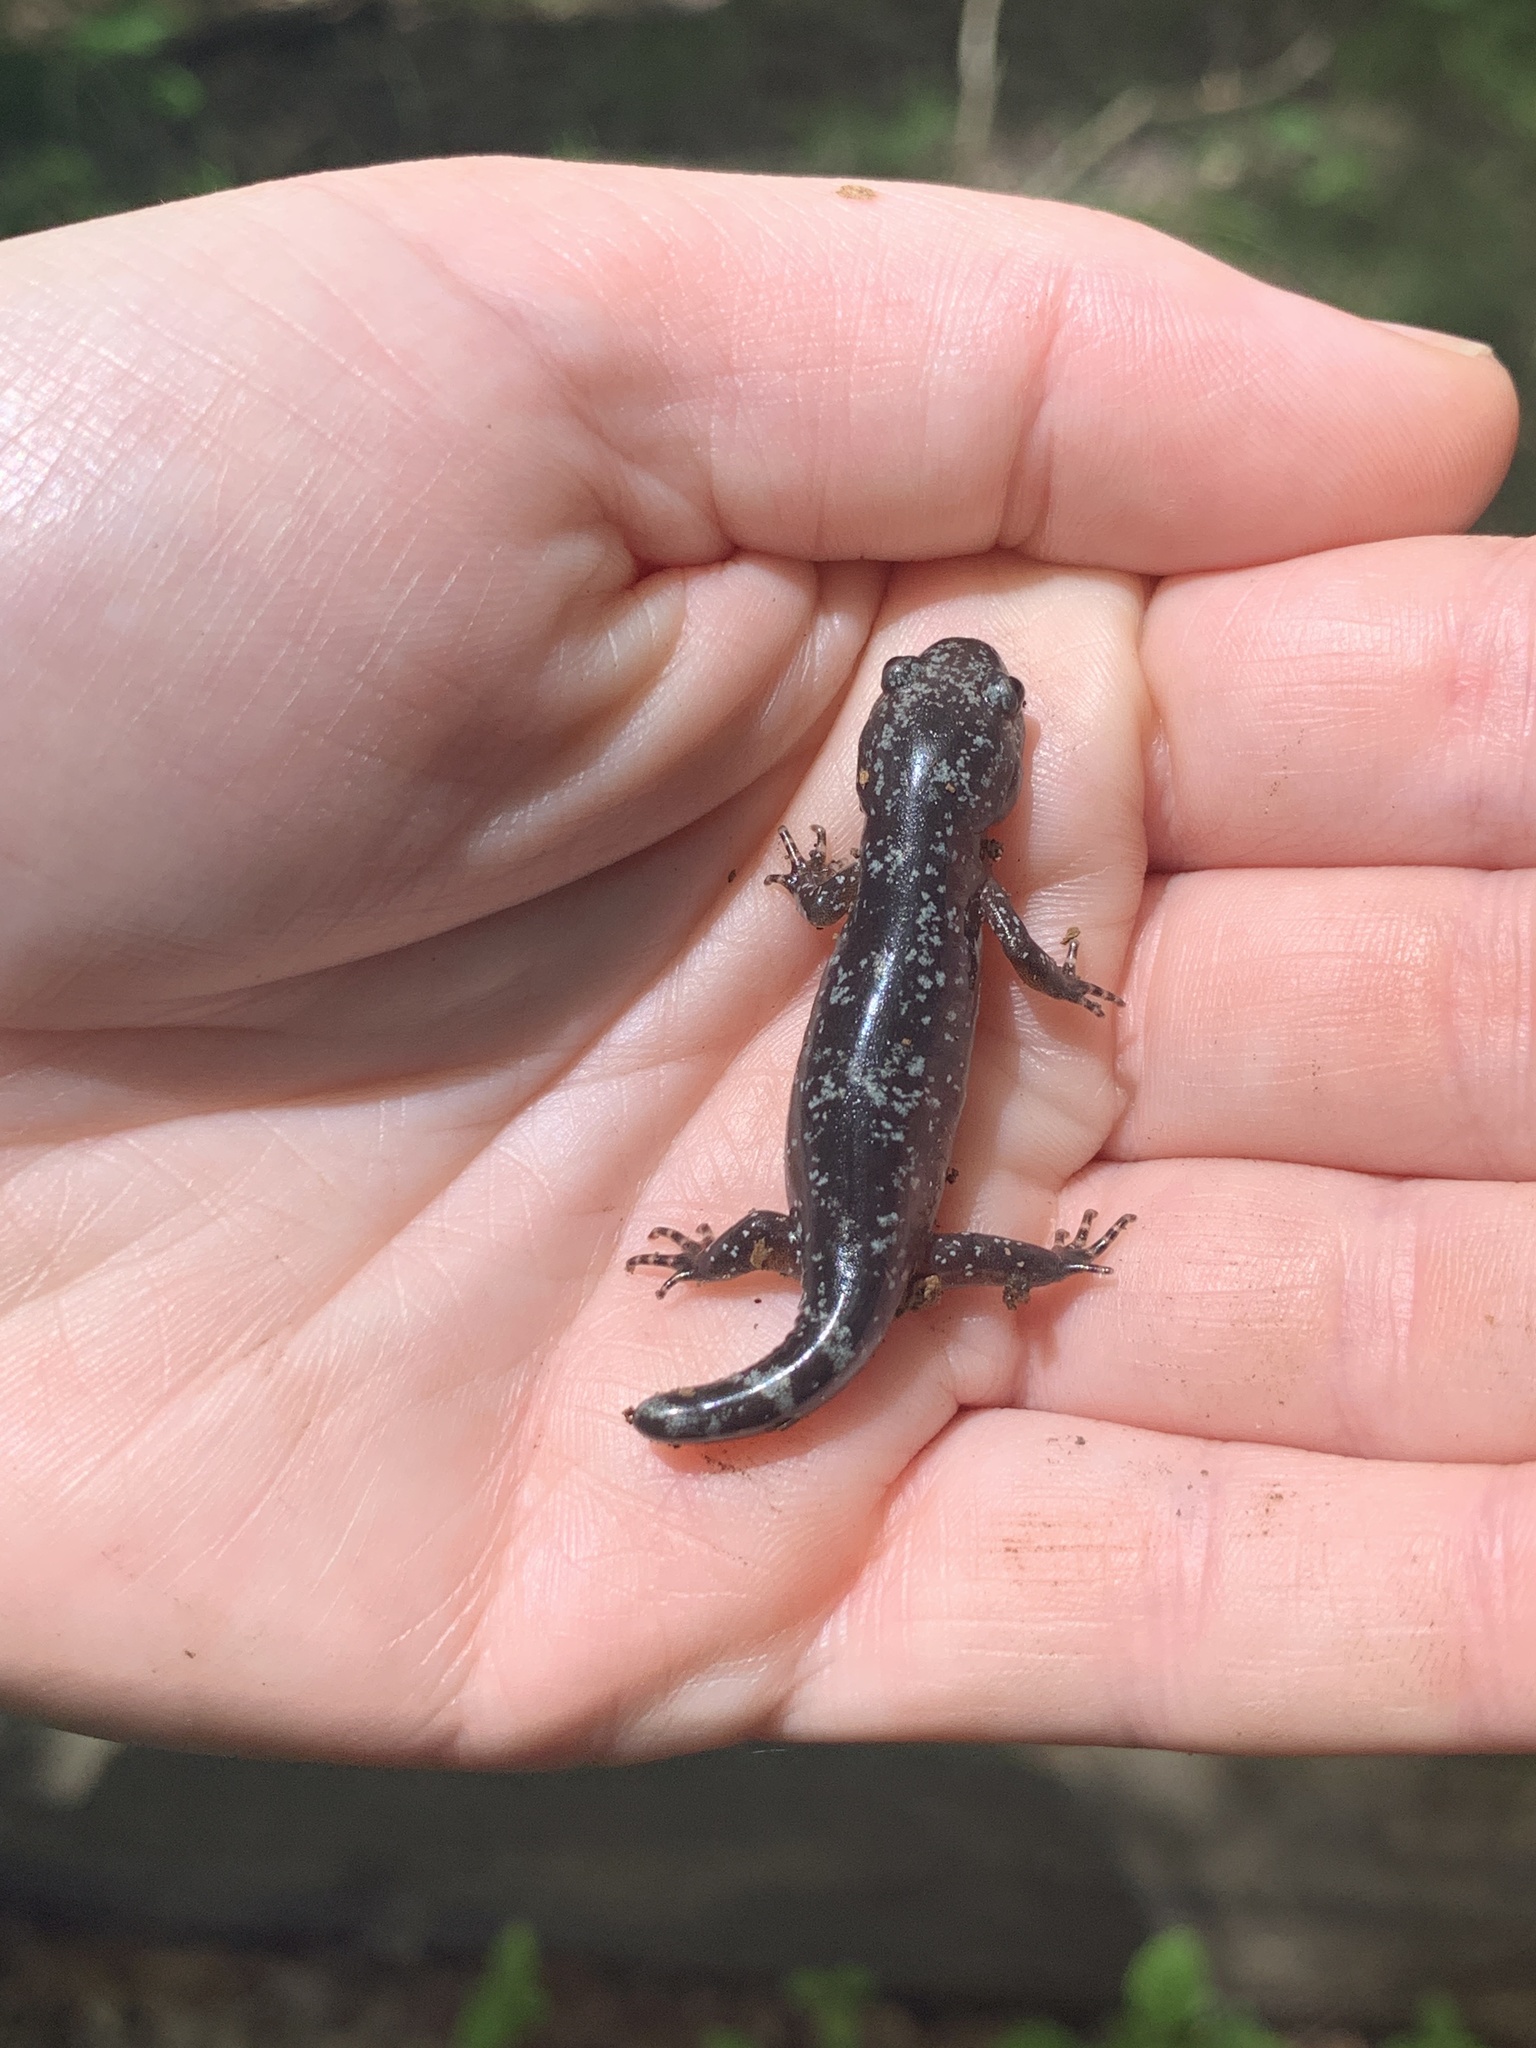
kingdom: Animalia
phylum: Chordata
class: Amphibia
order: Caudata
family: Ambystomatidae
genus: Ambystoma
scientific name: Ambystoma opacum
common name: Marbled salamander
